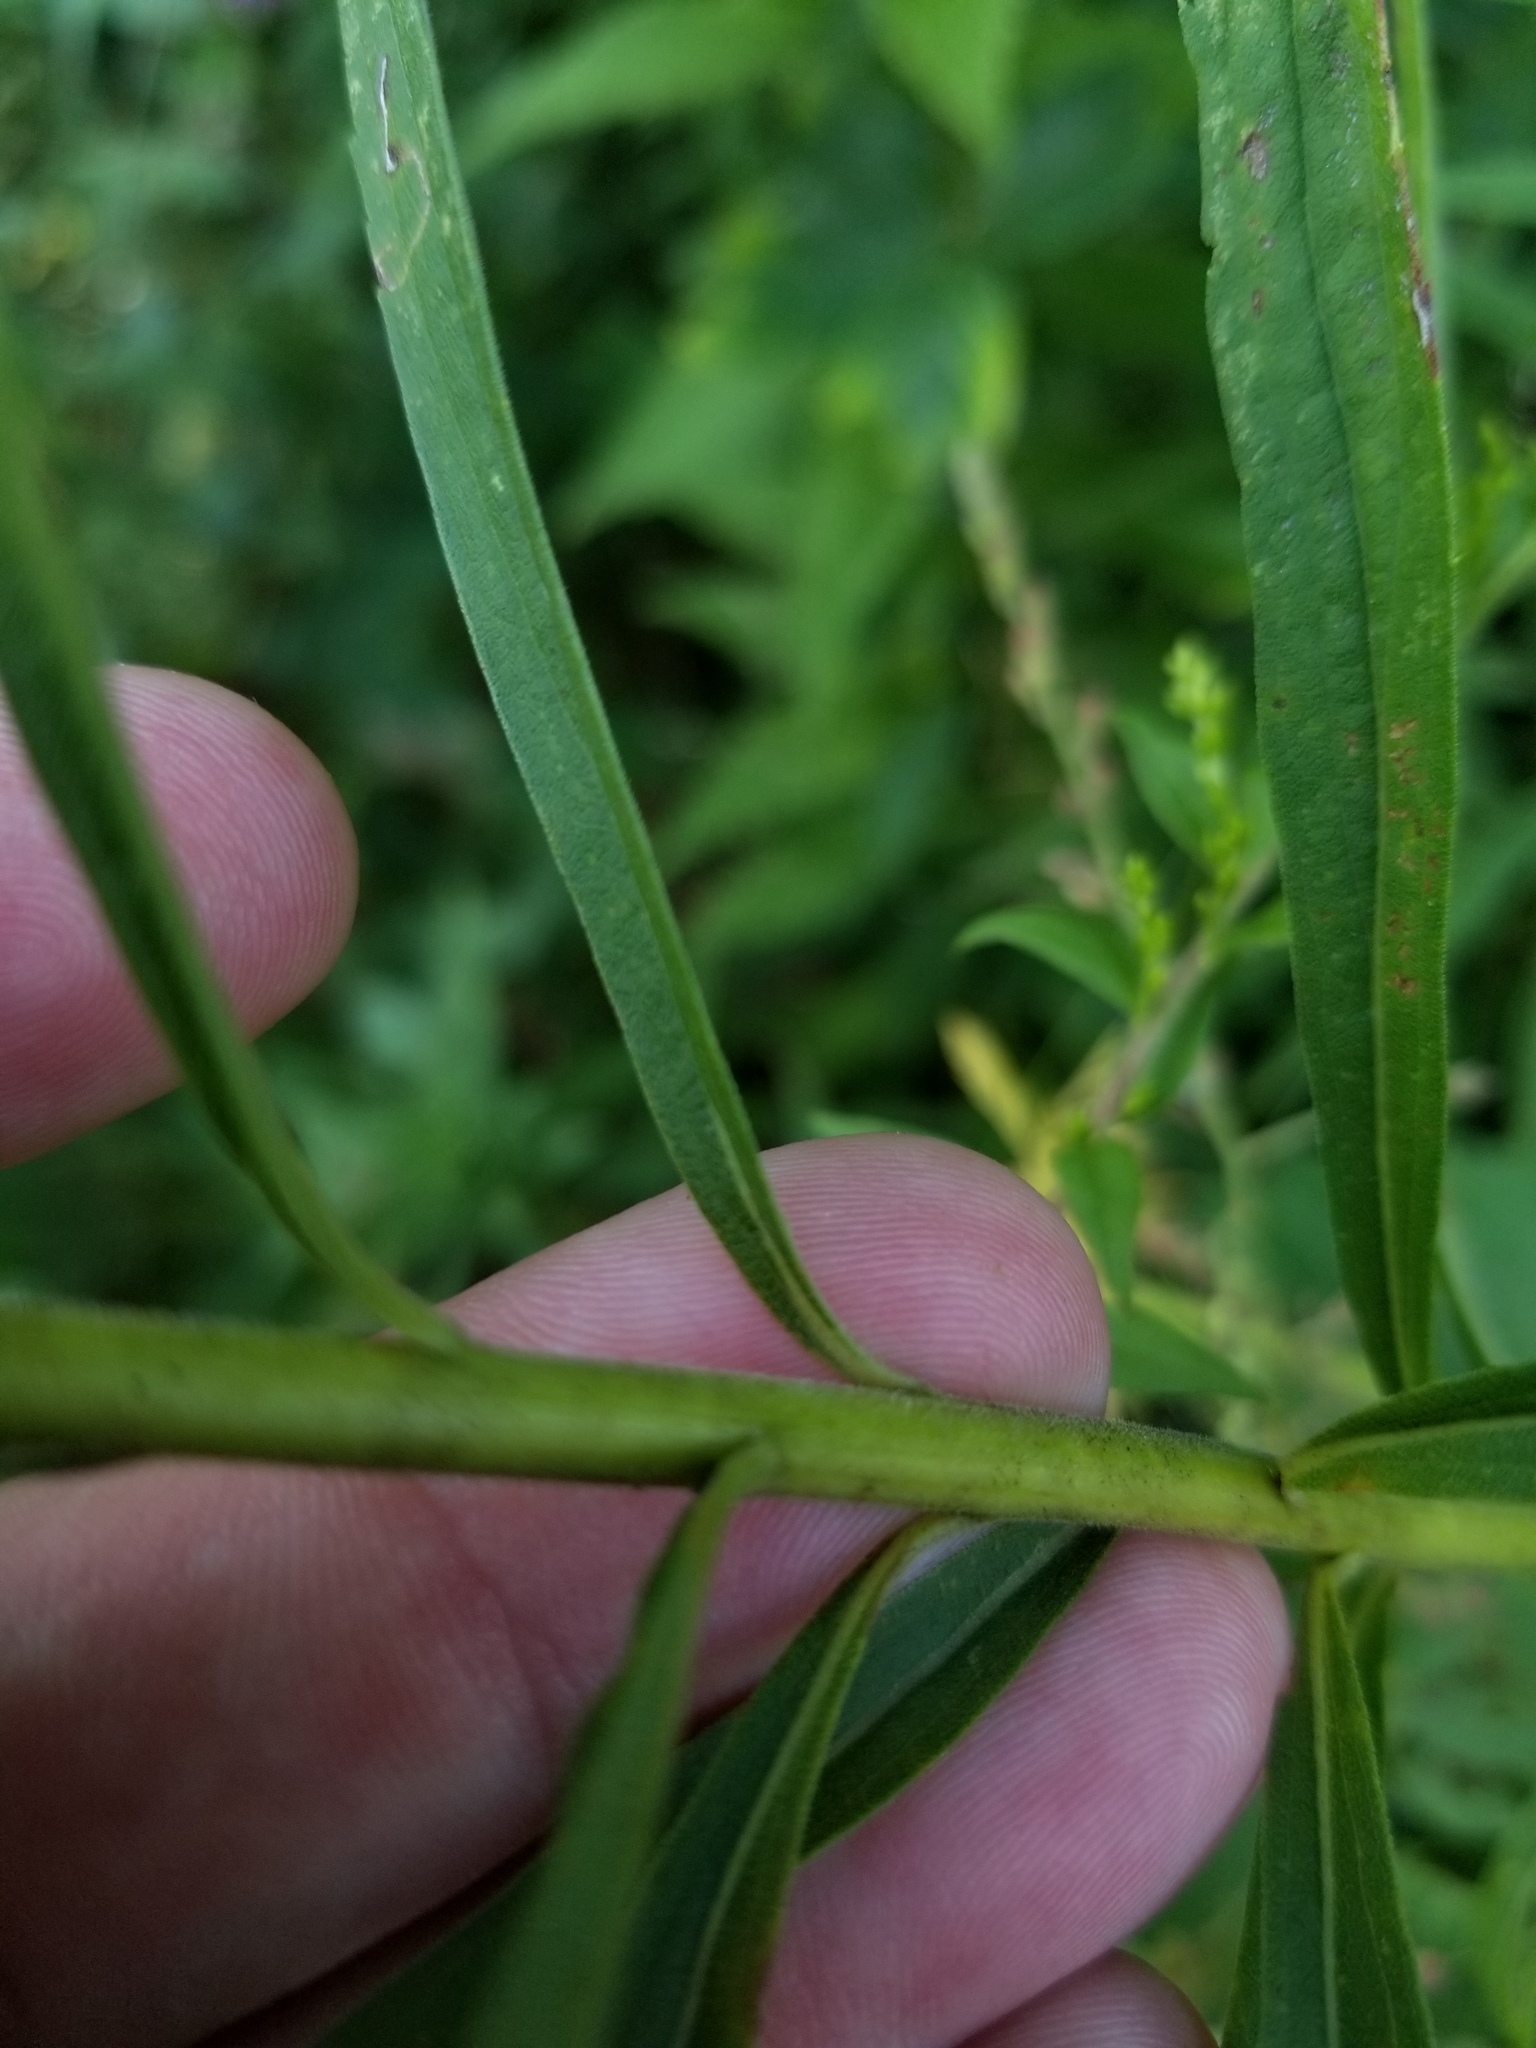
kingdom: Plantae
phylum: Tracheophyta
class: Magnoliopsida
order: Asterales
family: Asteraceae
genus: Solidago
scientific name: Solidago altissima
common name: Late goldenrod
